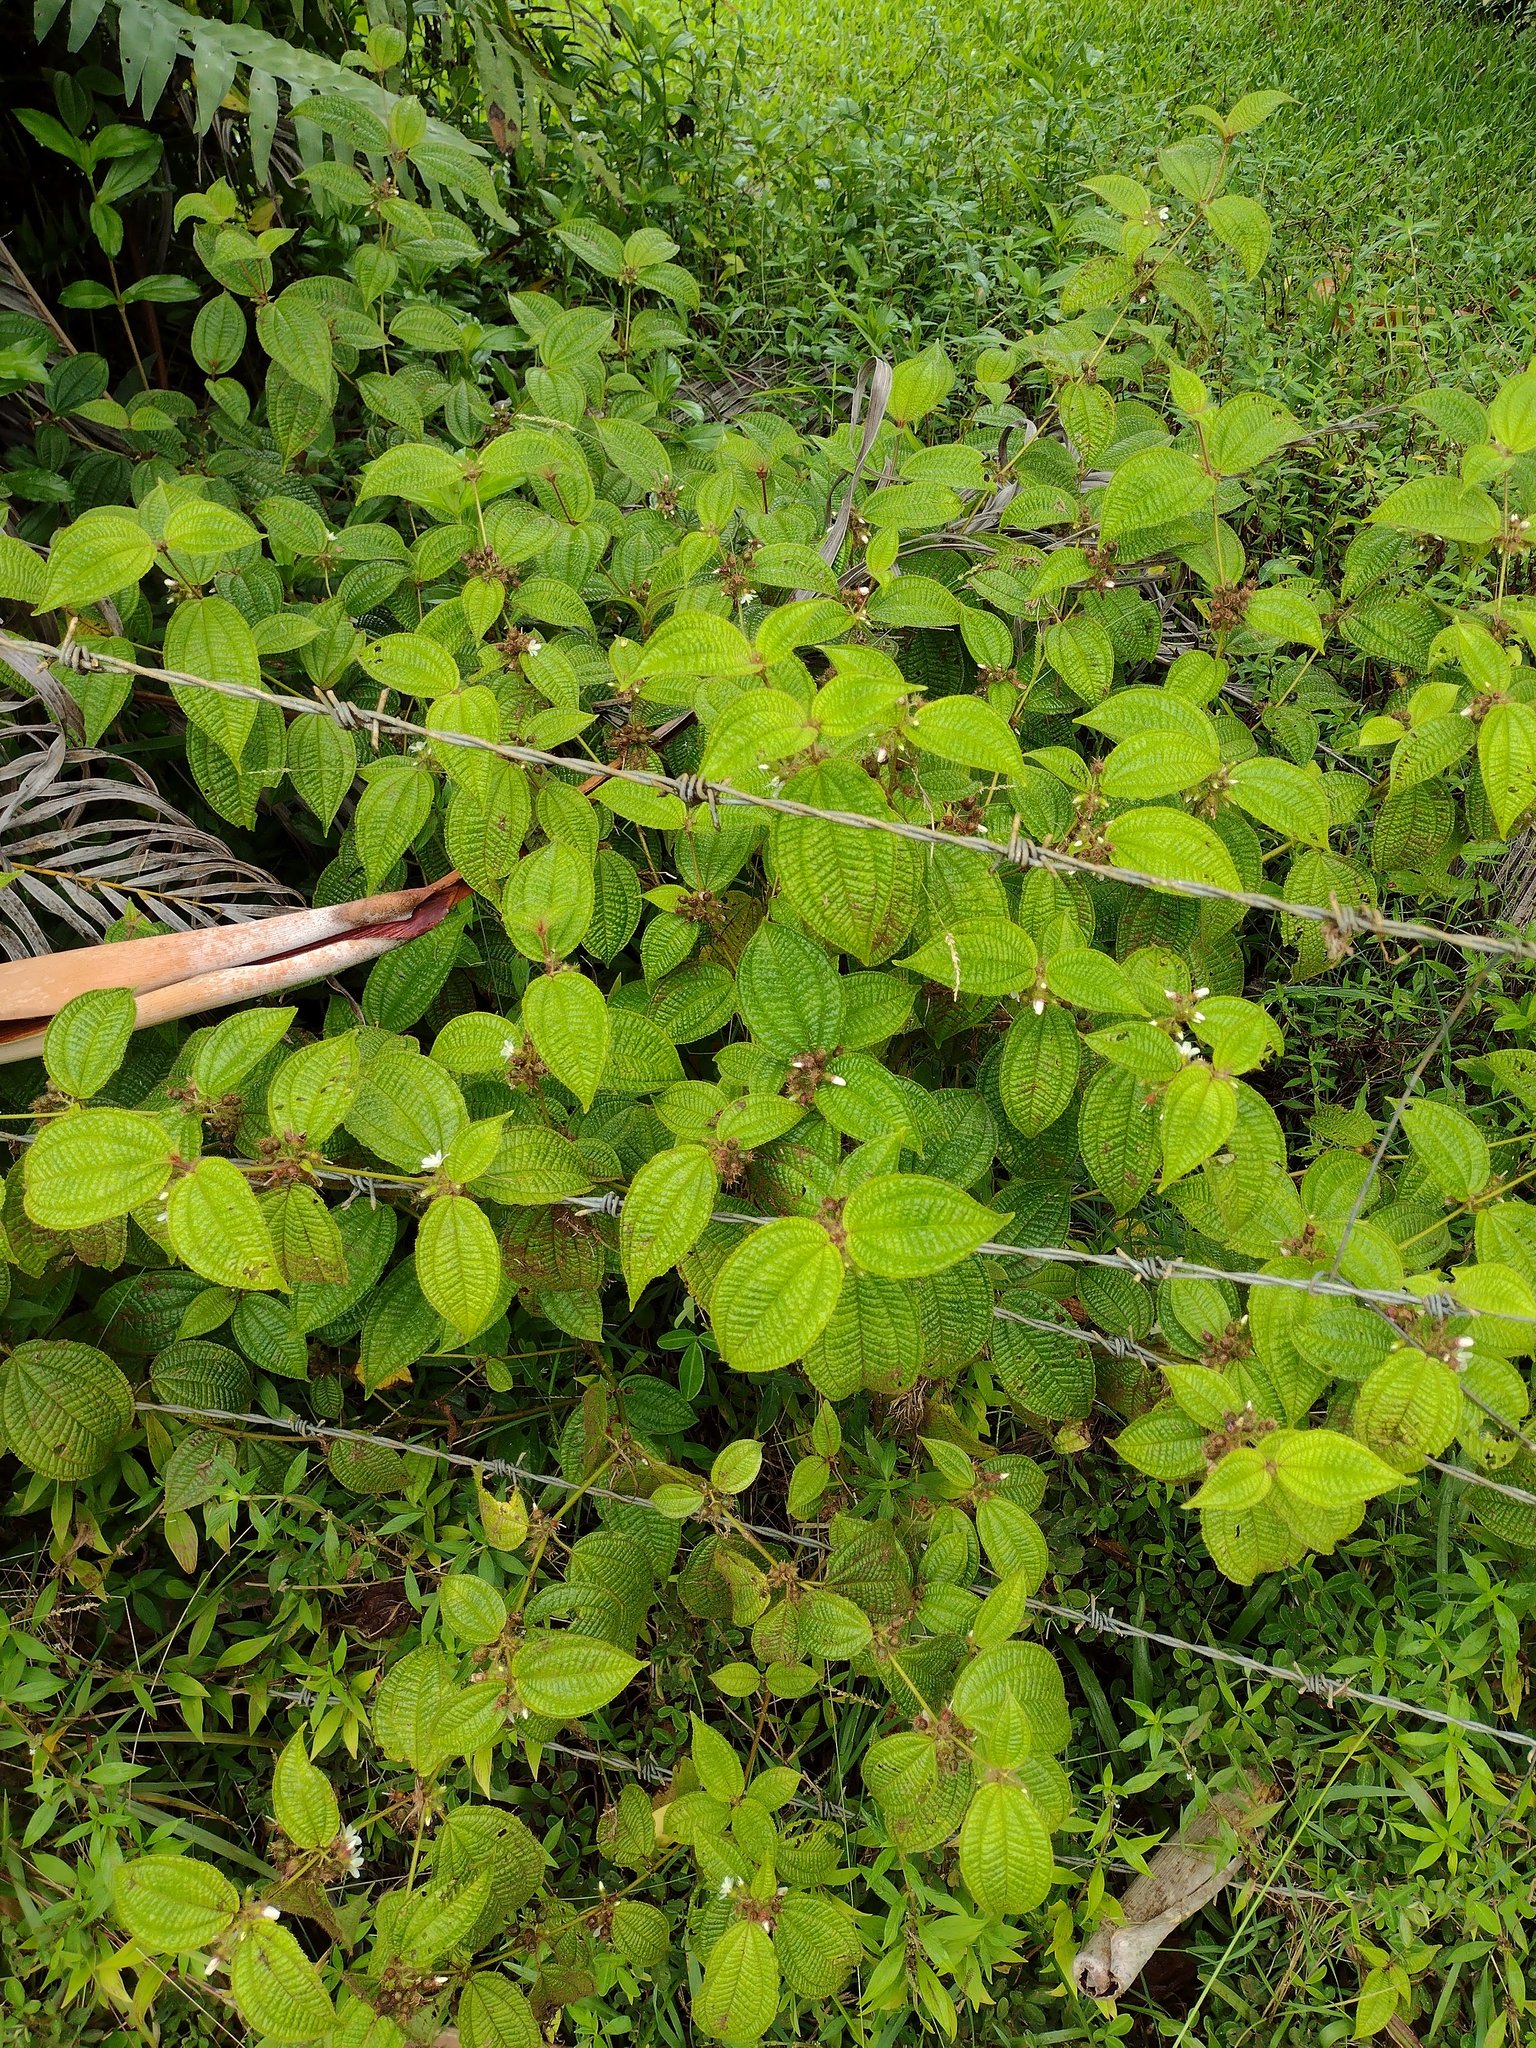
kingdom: Plantae
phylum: Tracheophyta
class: Magnoliopsida
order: Myrtales
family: Melastomataceae
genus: Miconia
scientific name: Miconia crenata
